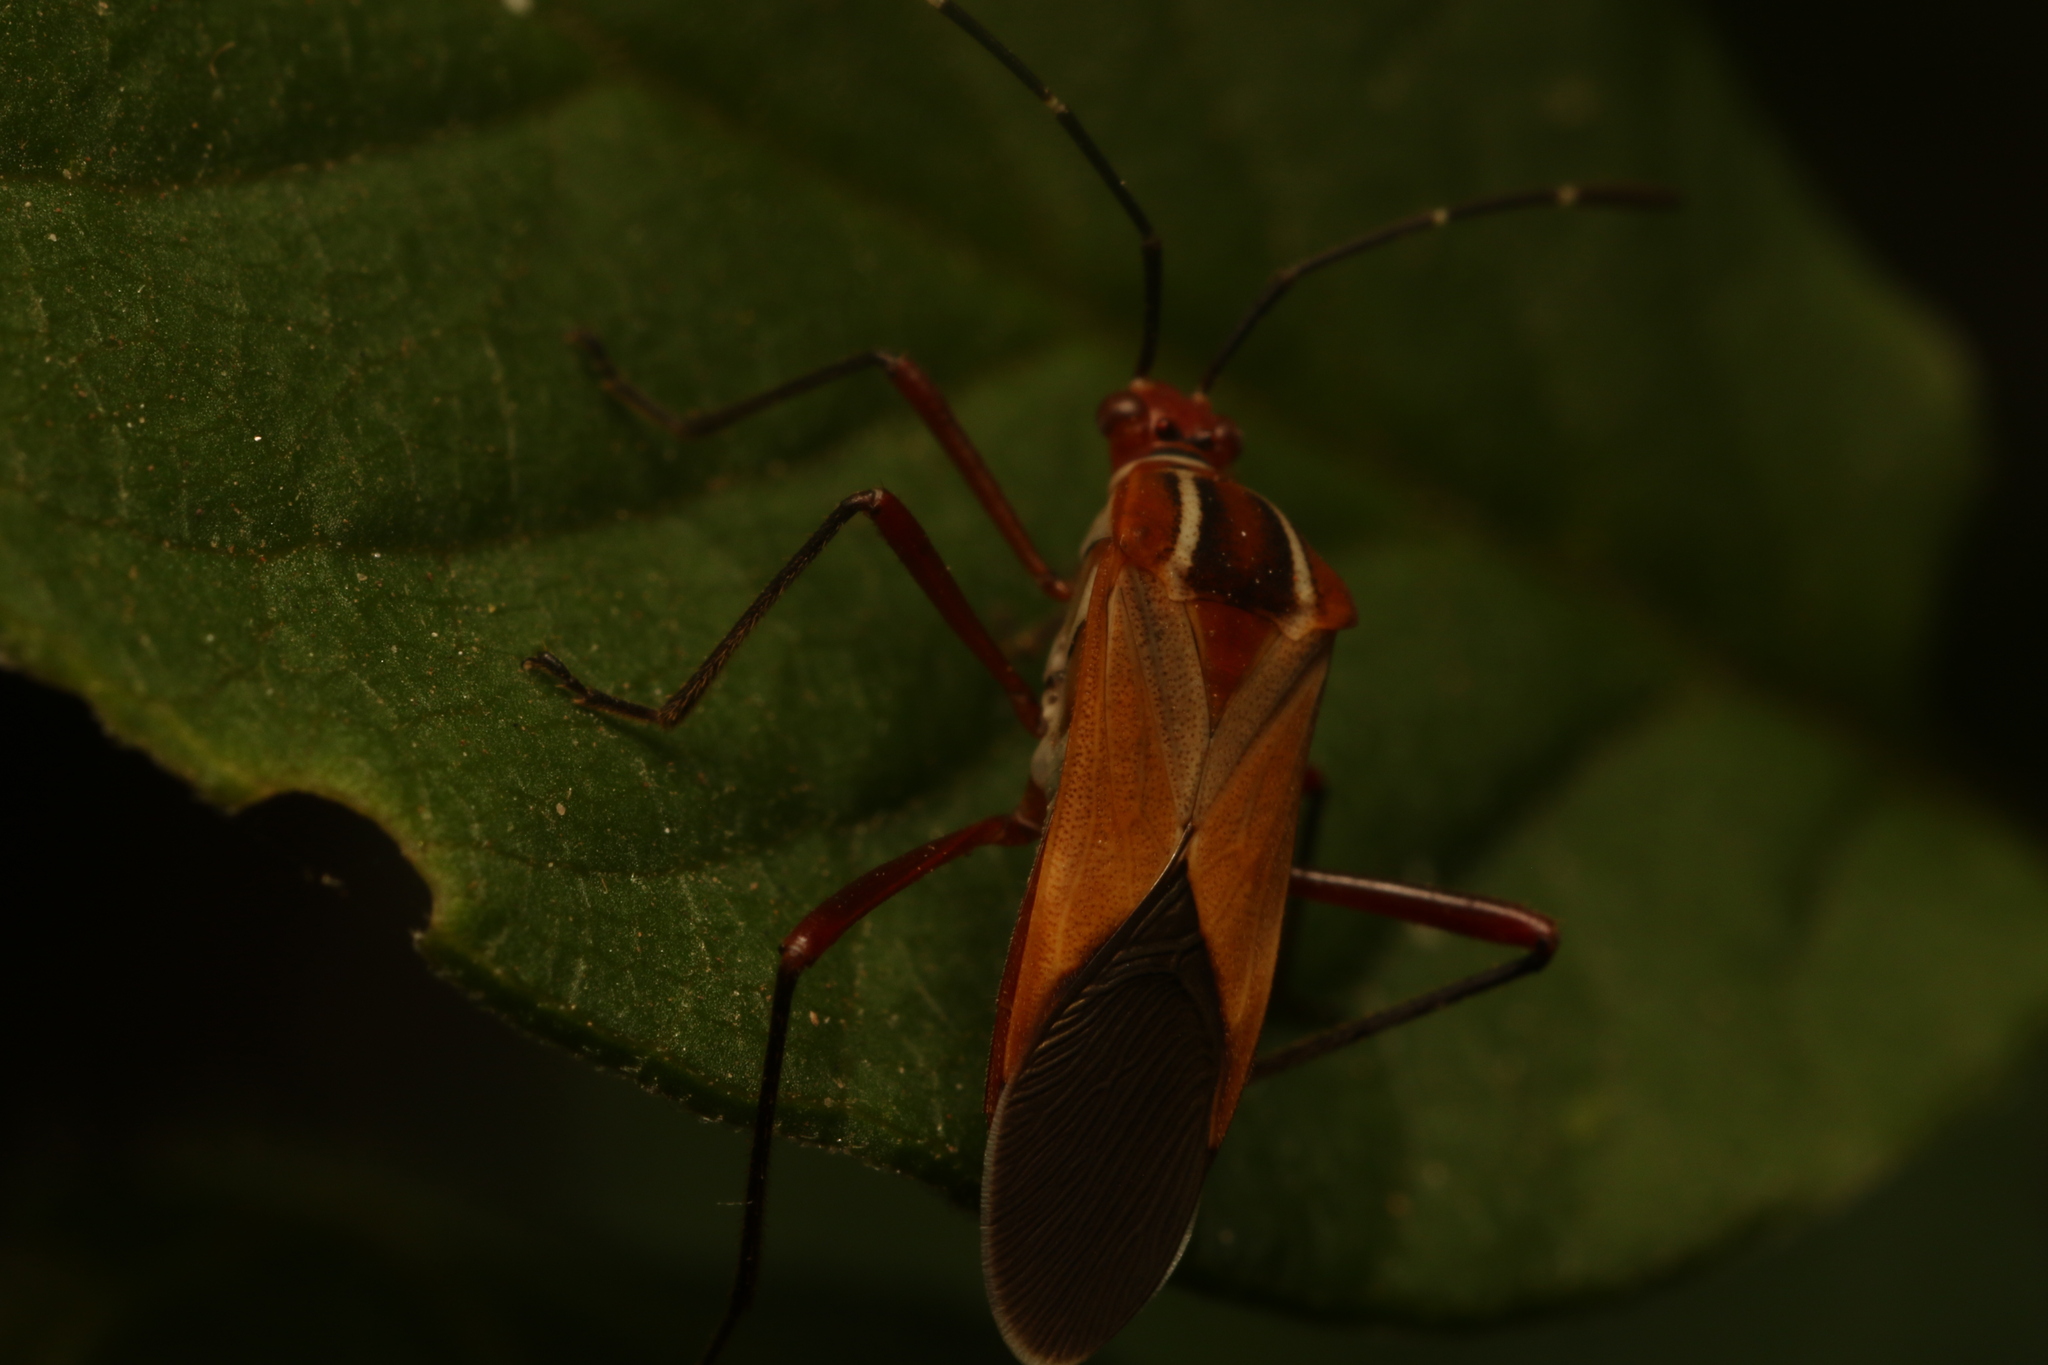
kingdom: Animalia
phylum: Arthropoda
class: Insecta
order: Hemiptera
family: Coreidae
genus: Hypselonotus
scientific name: Hypselonotus interruptus
